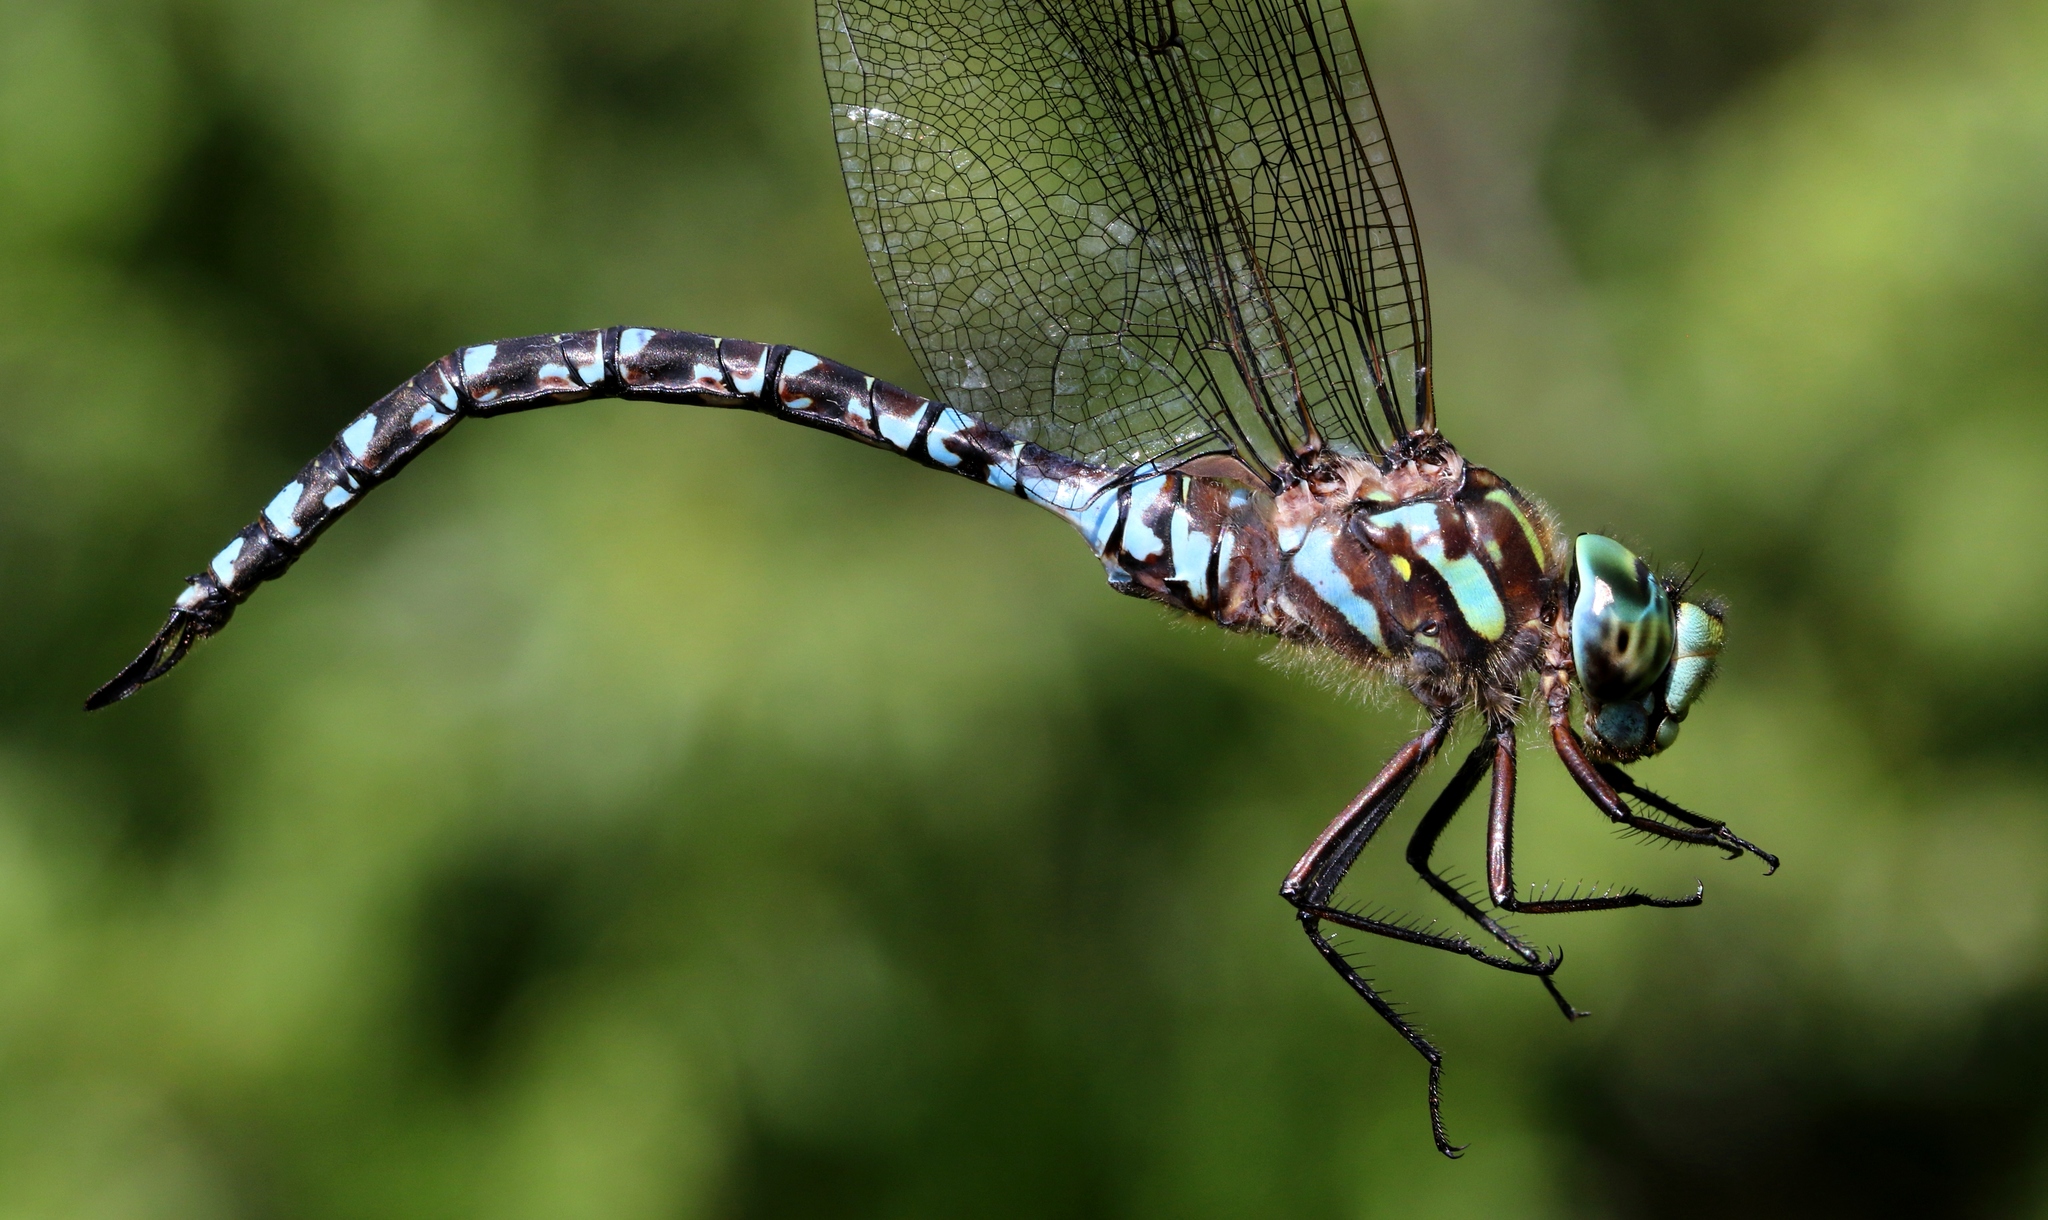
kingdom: Animalia
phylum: Arthropoda
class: Insecta
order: Odonata
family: Aeshnidae
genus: Aeshna
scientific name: Aeshna canadensis
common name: Canada darner
